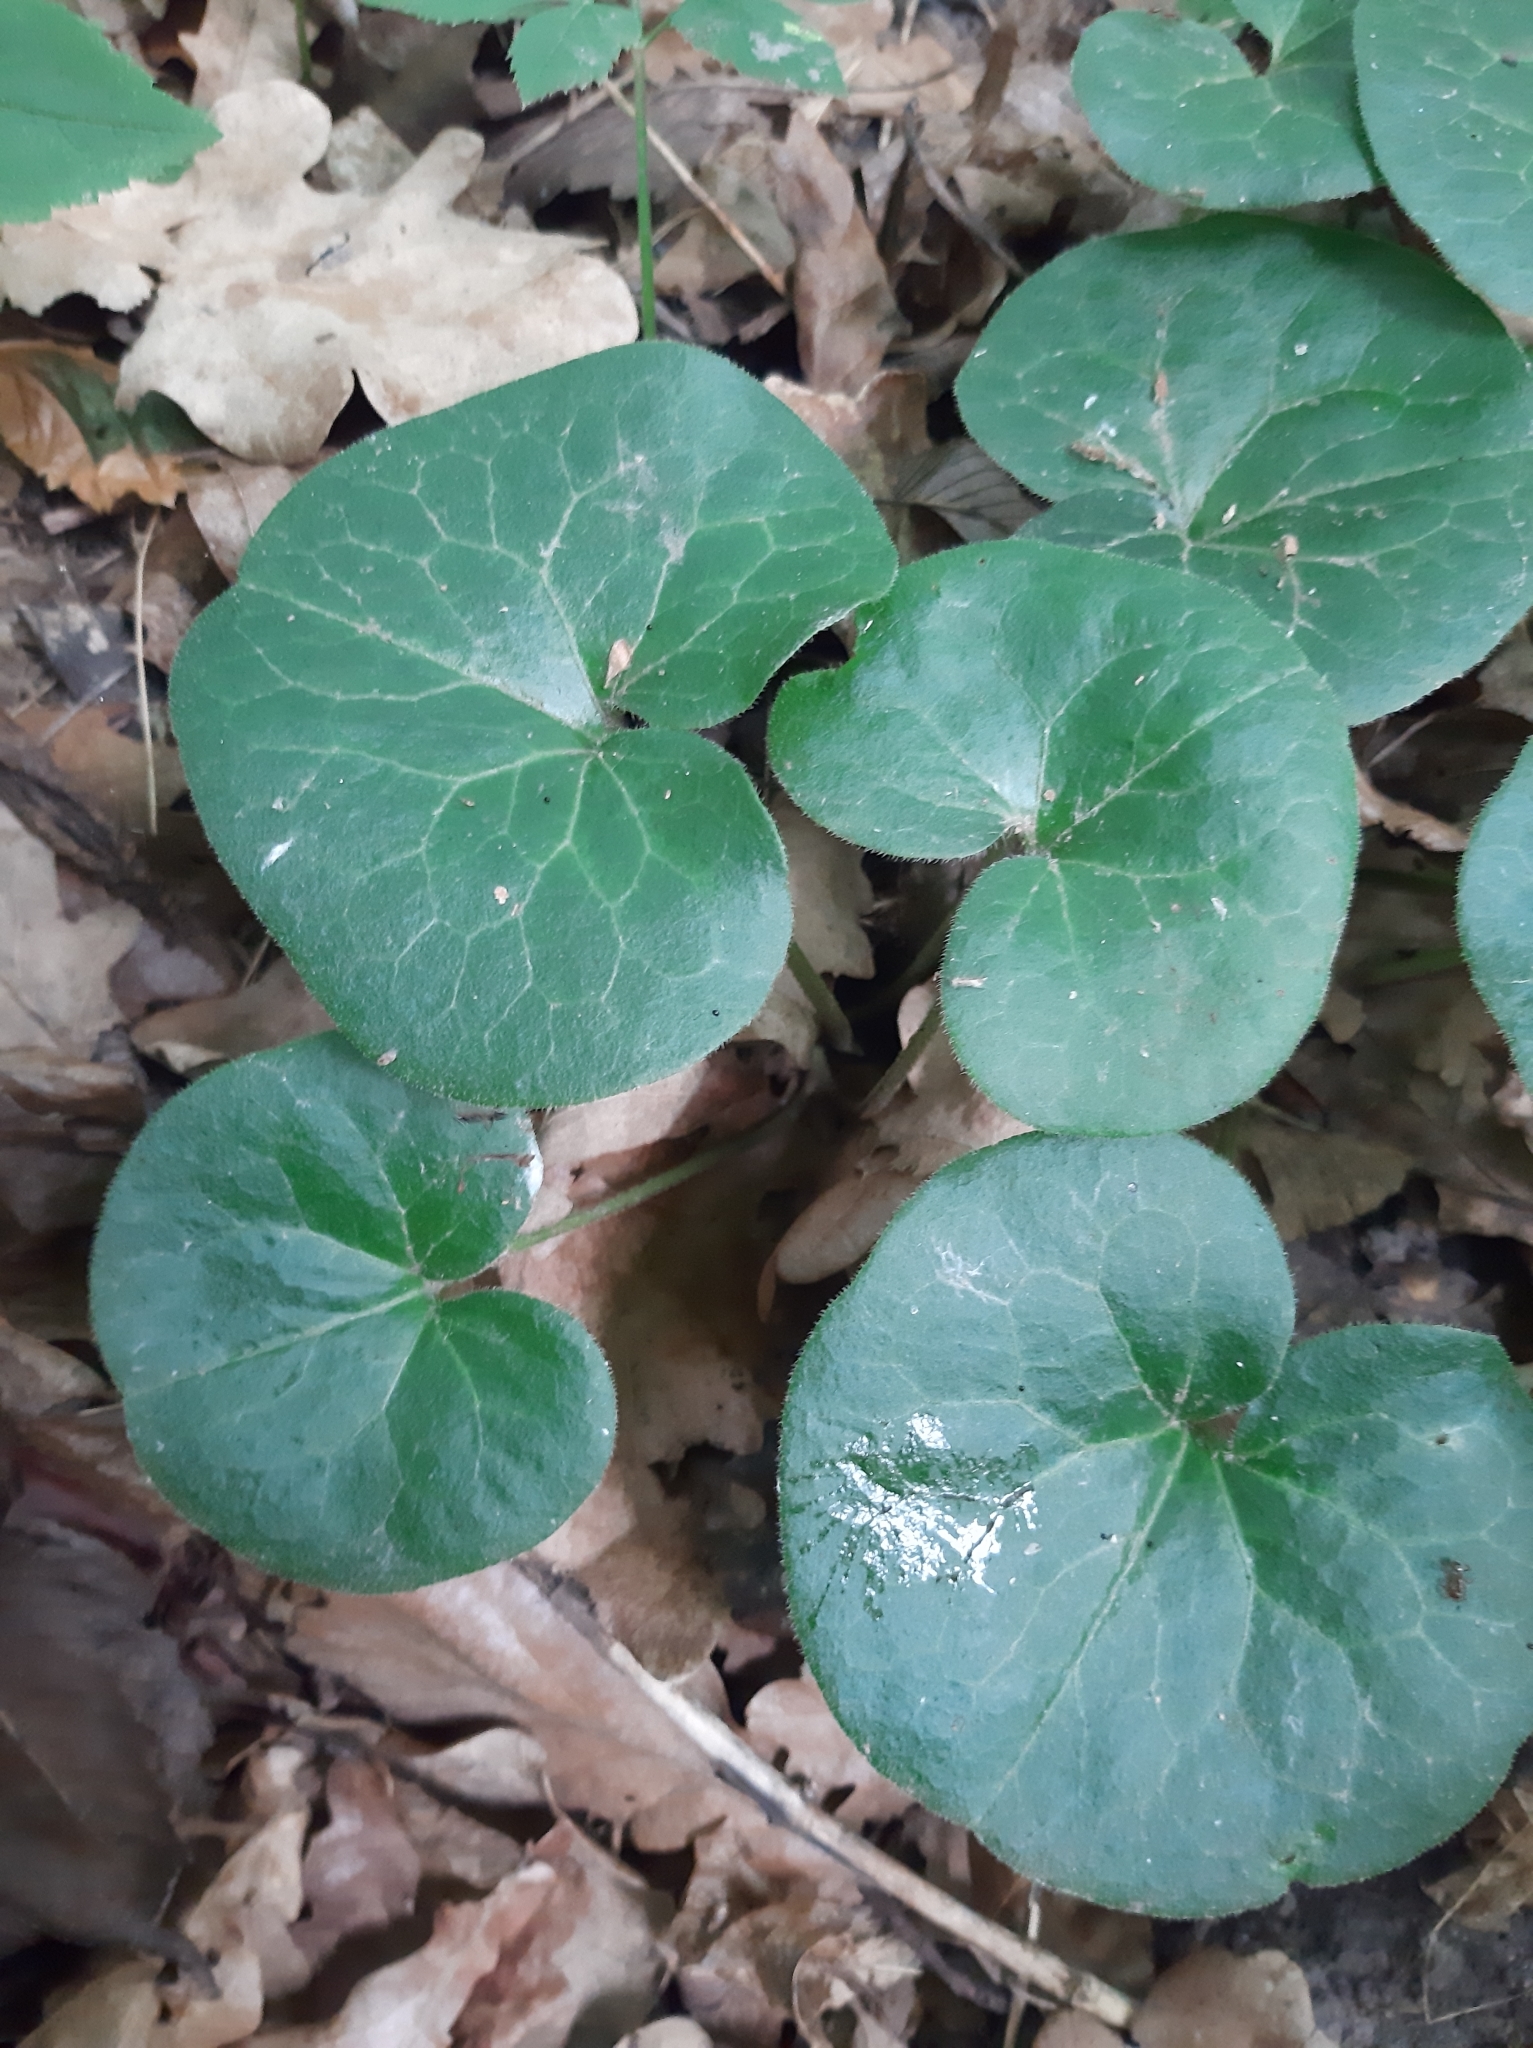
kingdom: Plantae
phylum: Tracheophyta
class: Magnoliopsida
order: Piperales
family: Aristolochiaceae
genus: Asarum
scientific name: Asarum europaeum
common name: Asarabacca
